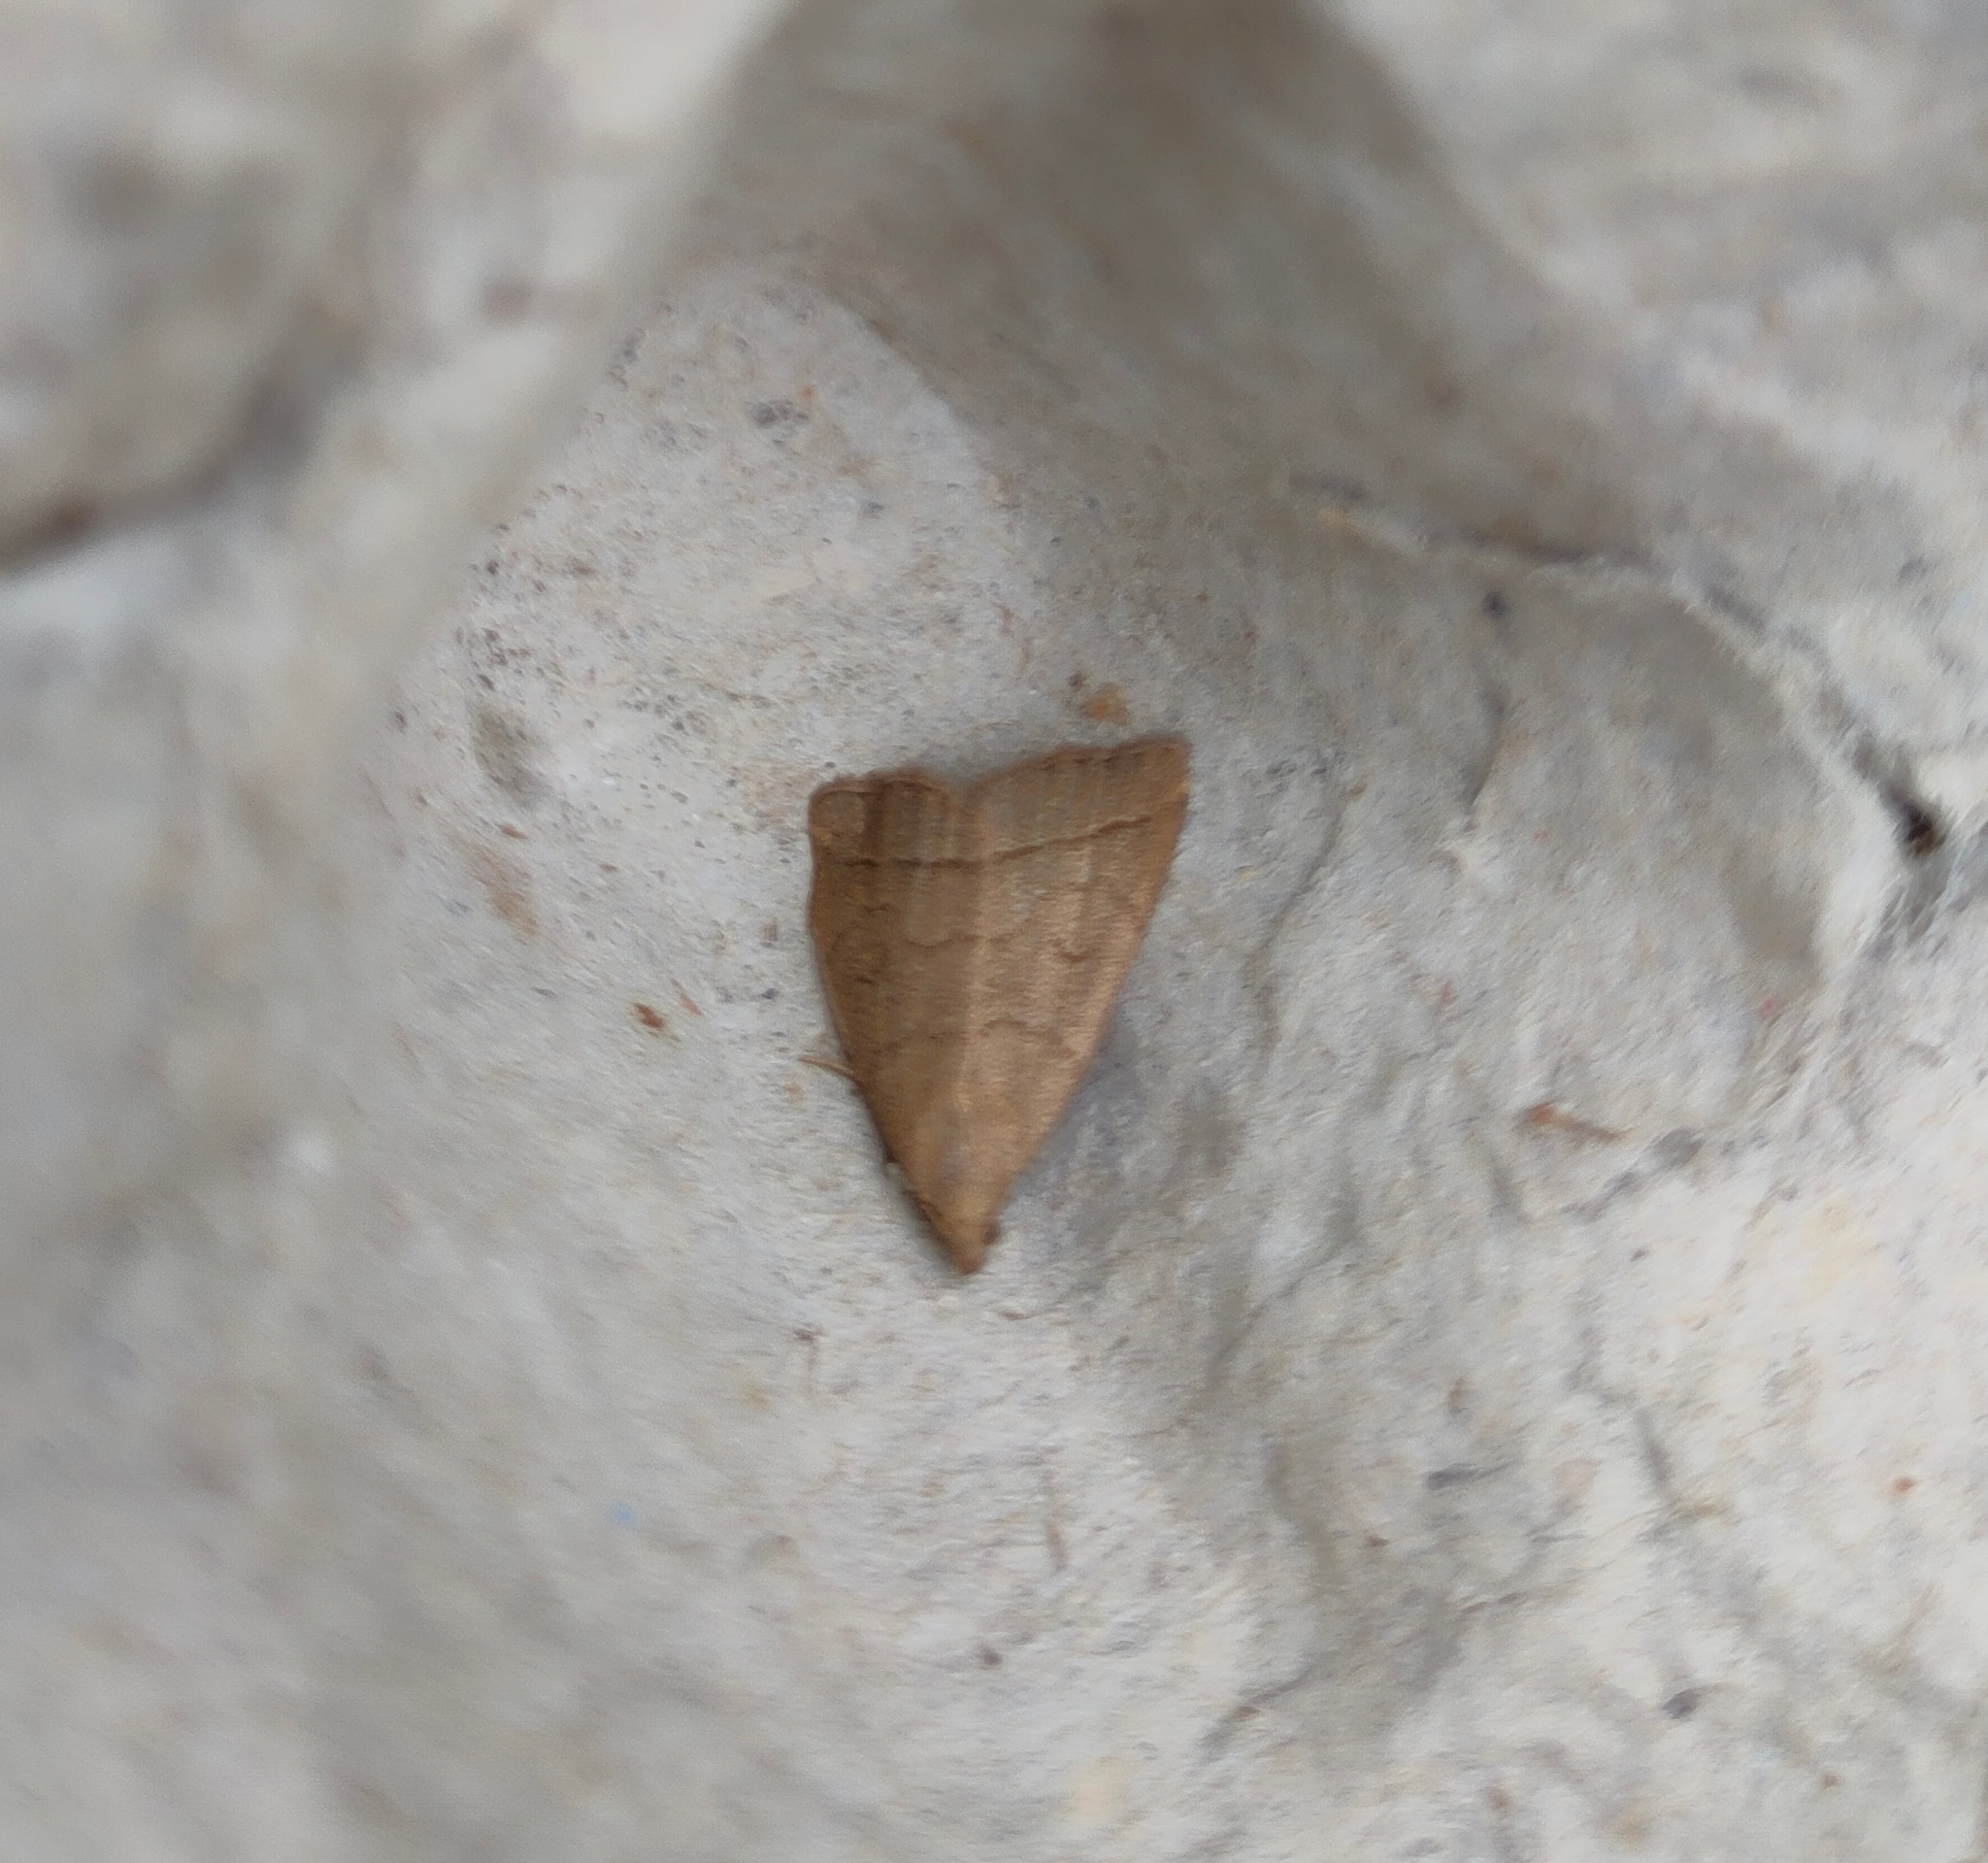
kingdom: Animalia
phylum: Arthropoda
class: Insecta
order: Lepidoptera
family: Erebidae
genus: Herminia
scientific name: Herminia tarsipennalis
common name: Fan-foot
